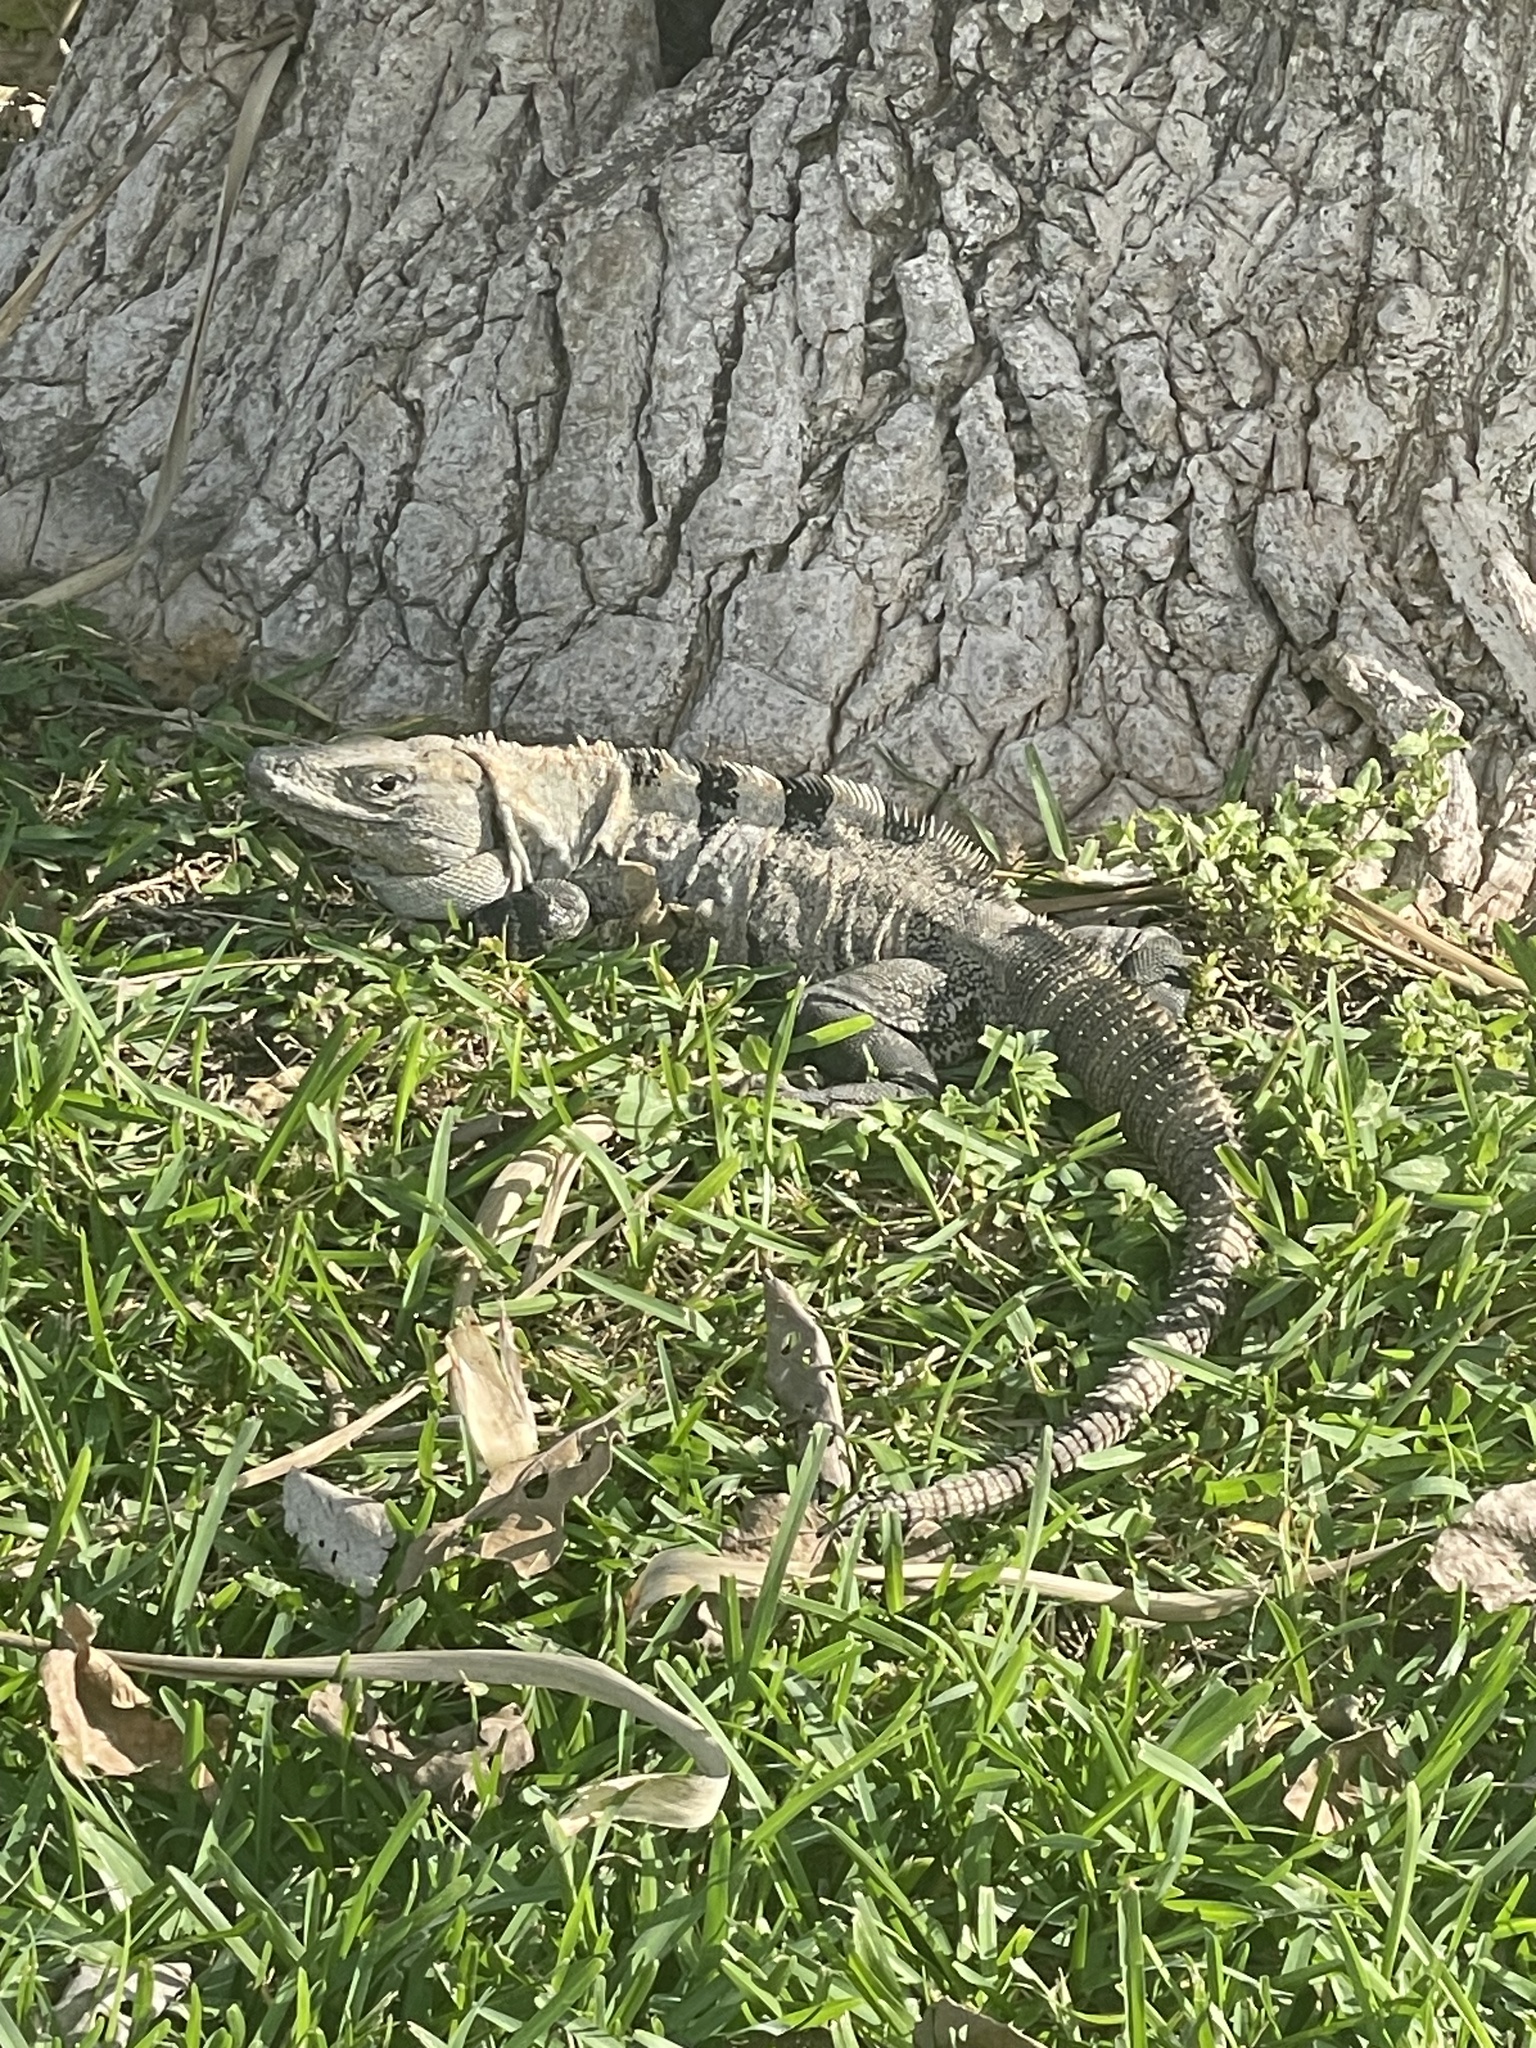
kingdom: Animalia
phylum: Chordata
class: Squamata
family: Iguanidae
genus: Ctenosaura
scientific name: Ctenosaura similis
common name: Black spiny-tailed iguana
